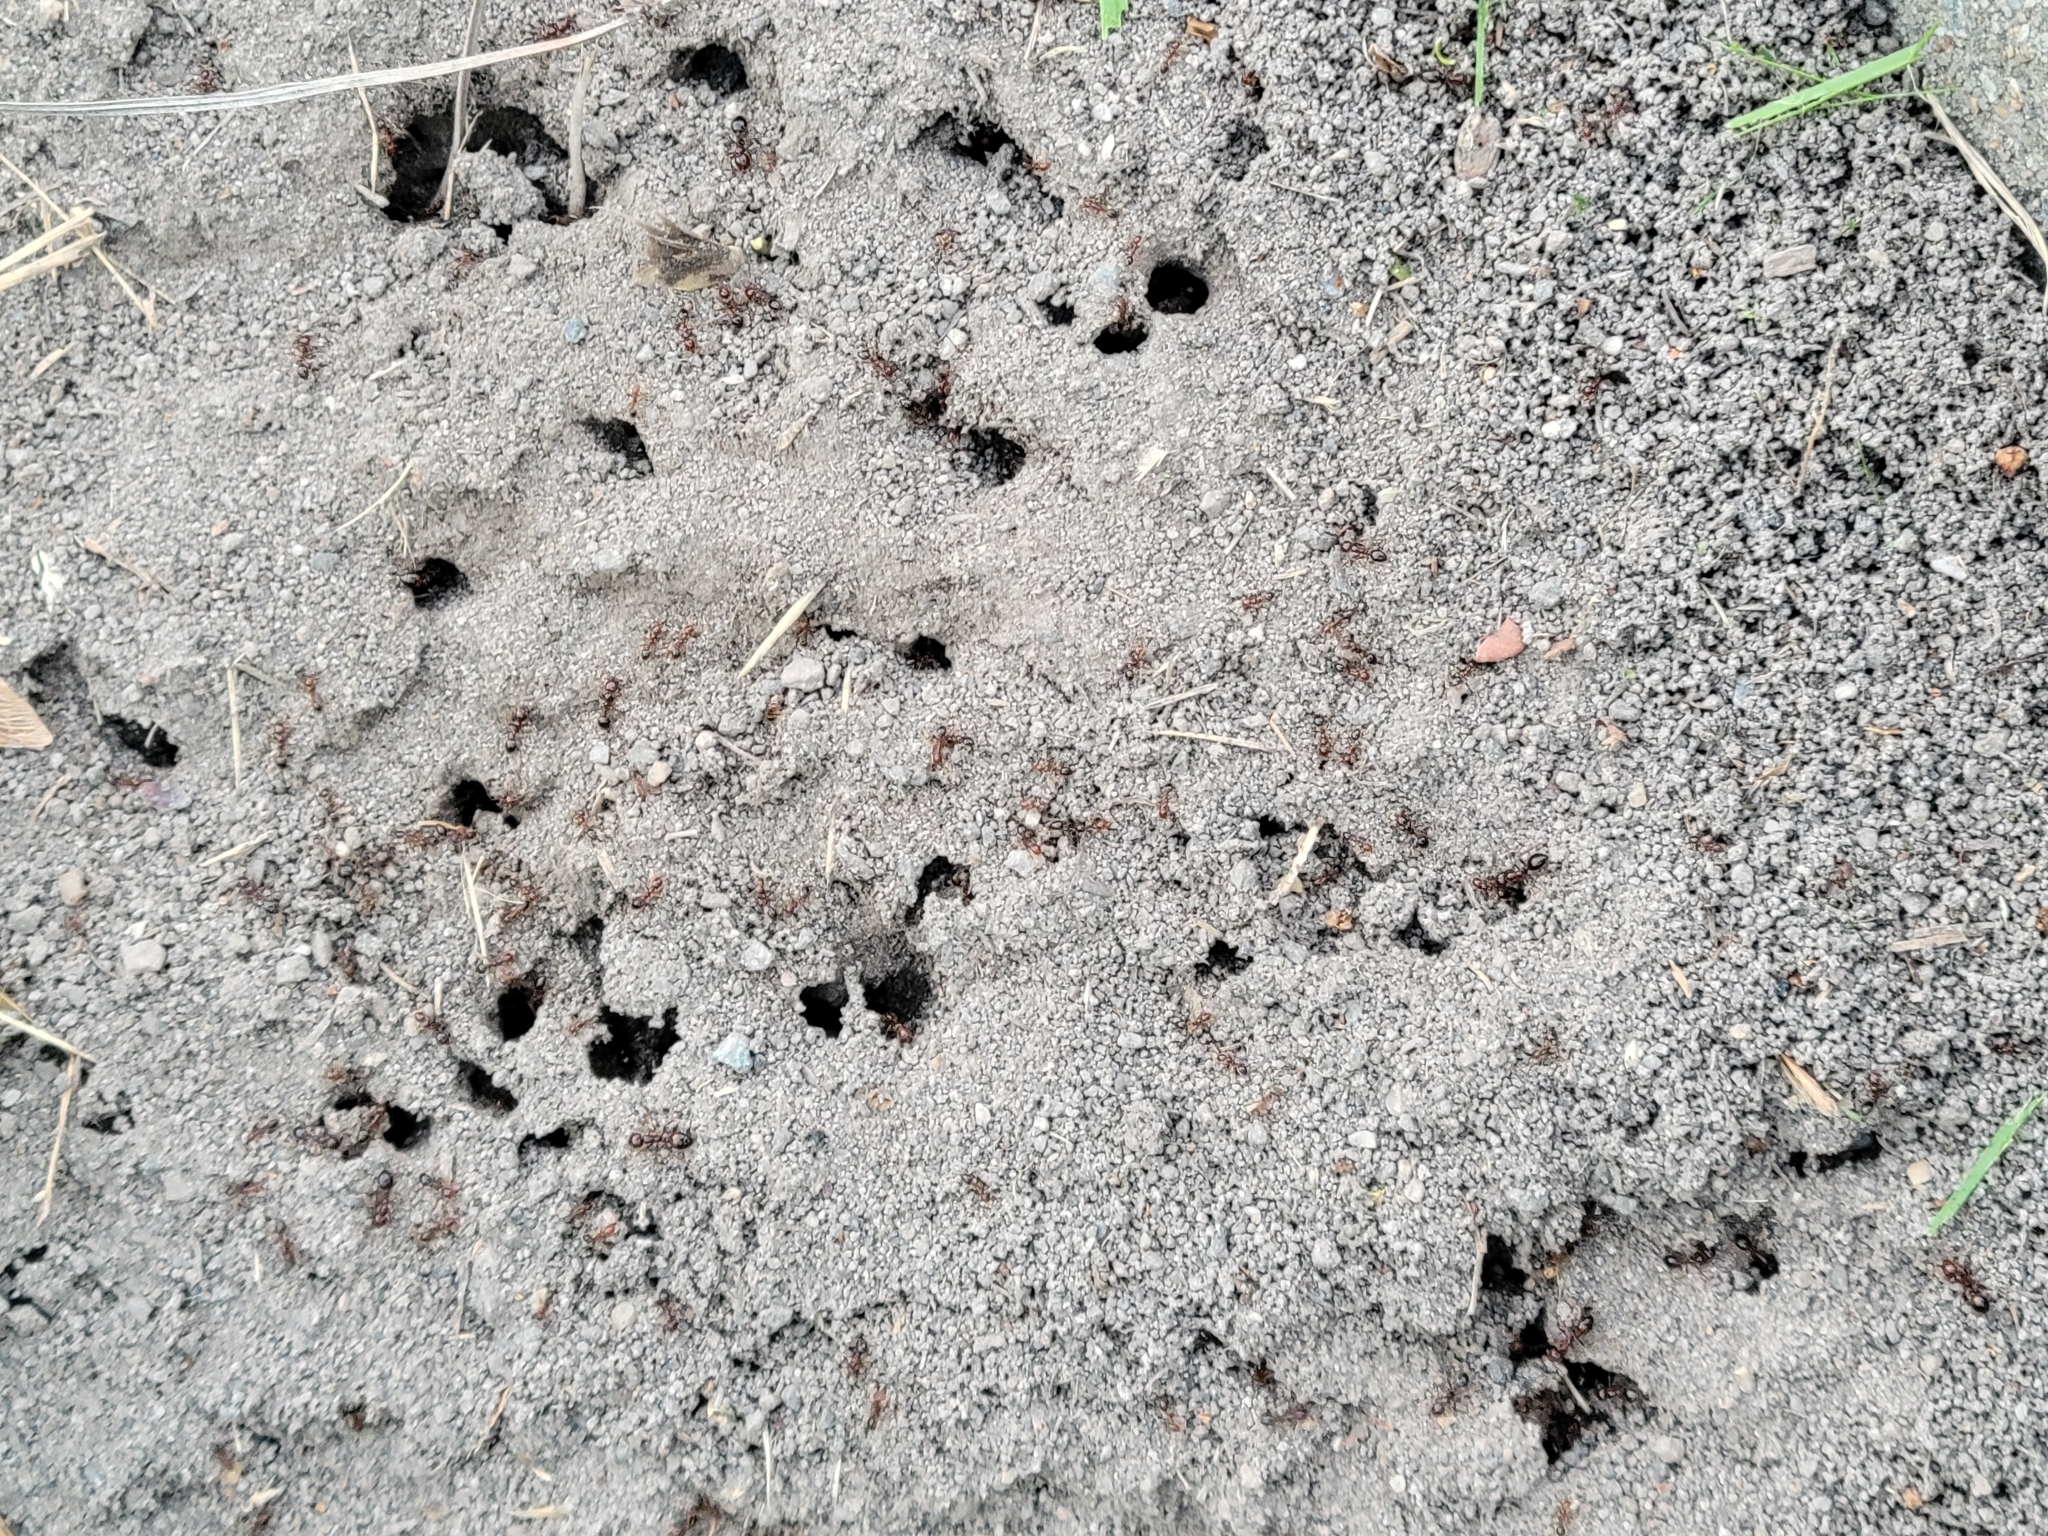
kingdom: Animalia
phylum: Arthropoda
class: Insecta
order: Hymenoptera
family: Formicidae
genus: Solenopsis
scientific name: Solenopsis invicta
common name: Red imported fire ant
